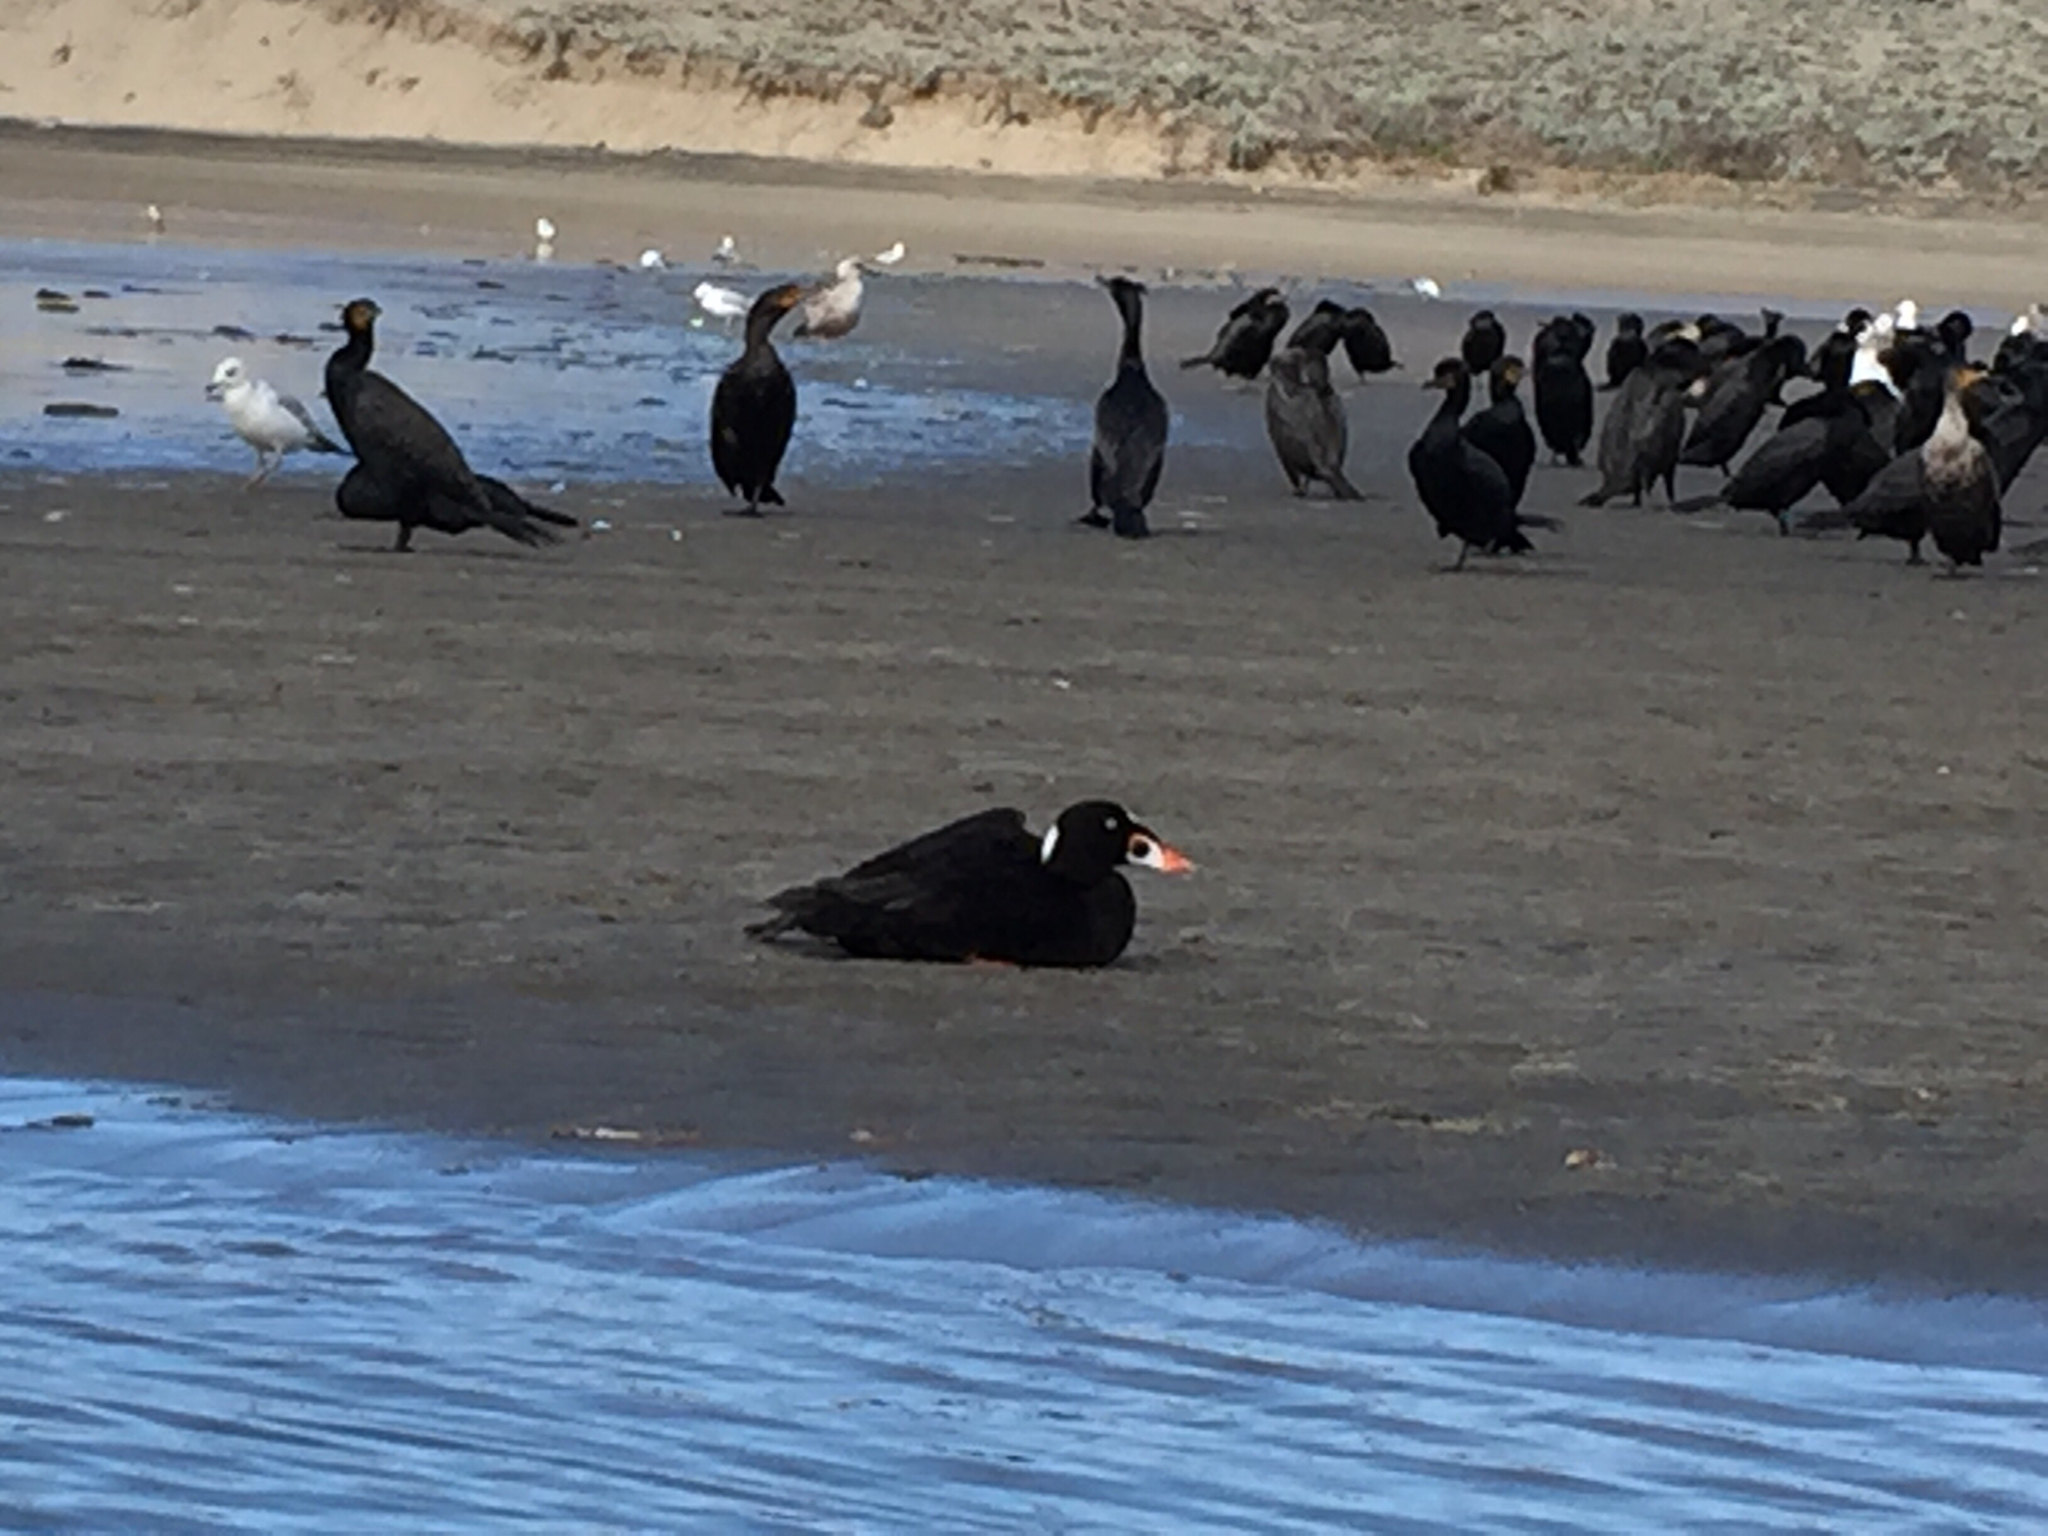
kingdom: Animalia
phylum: Chordata
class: Aves
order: Anseriformes
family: Anatidae
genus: Melanitta
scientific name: Melanitta perspicillata
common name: Surf scoter
